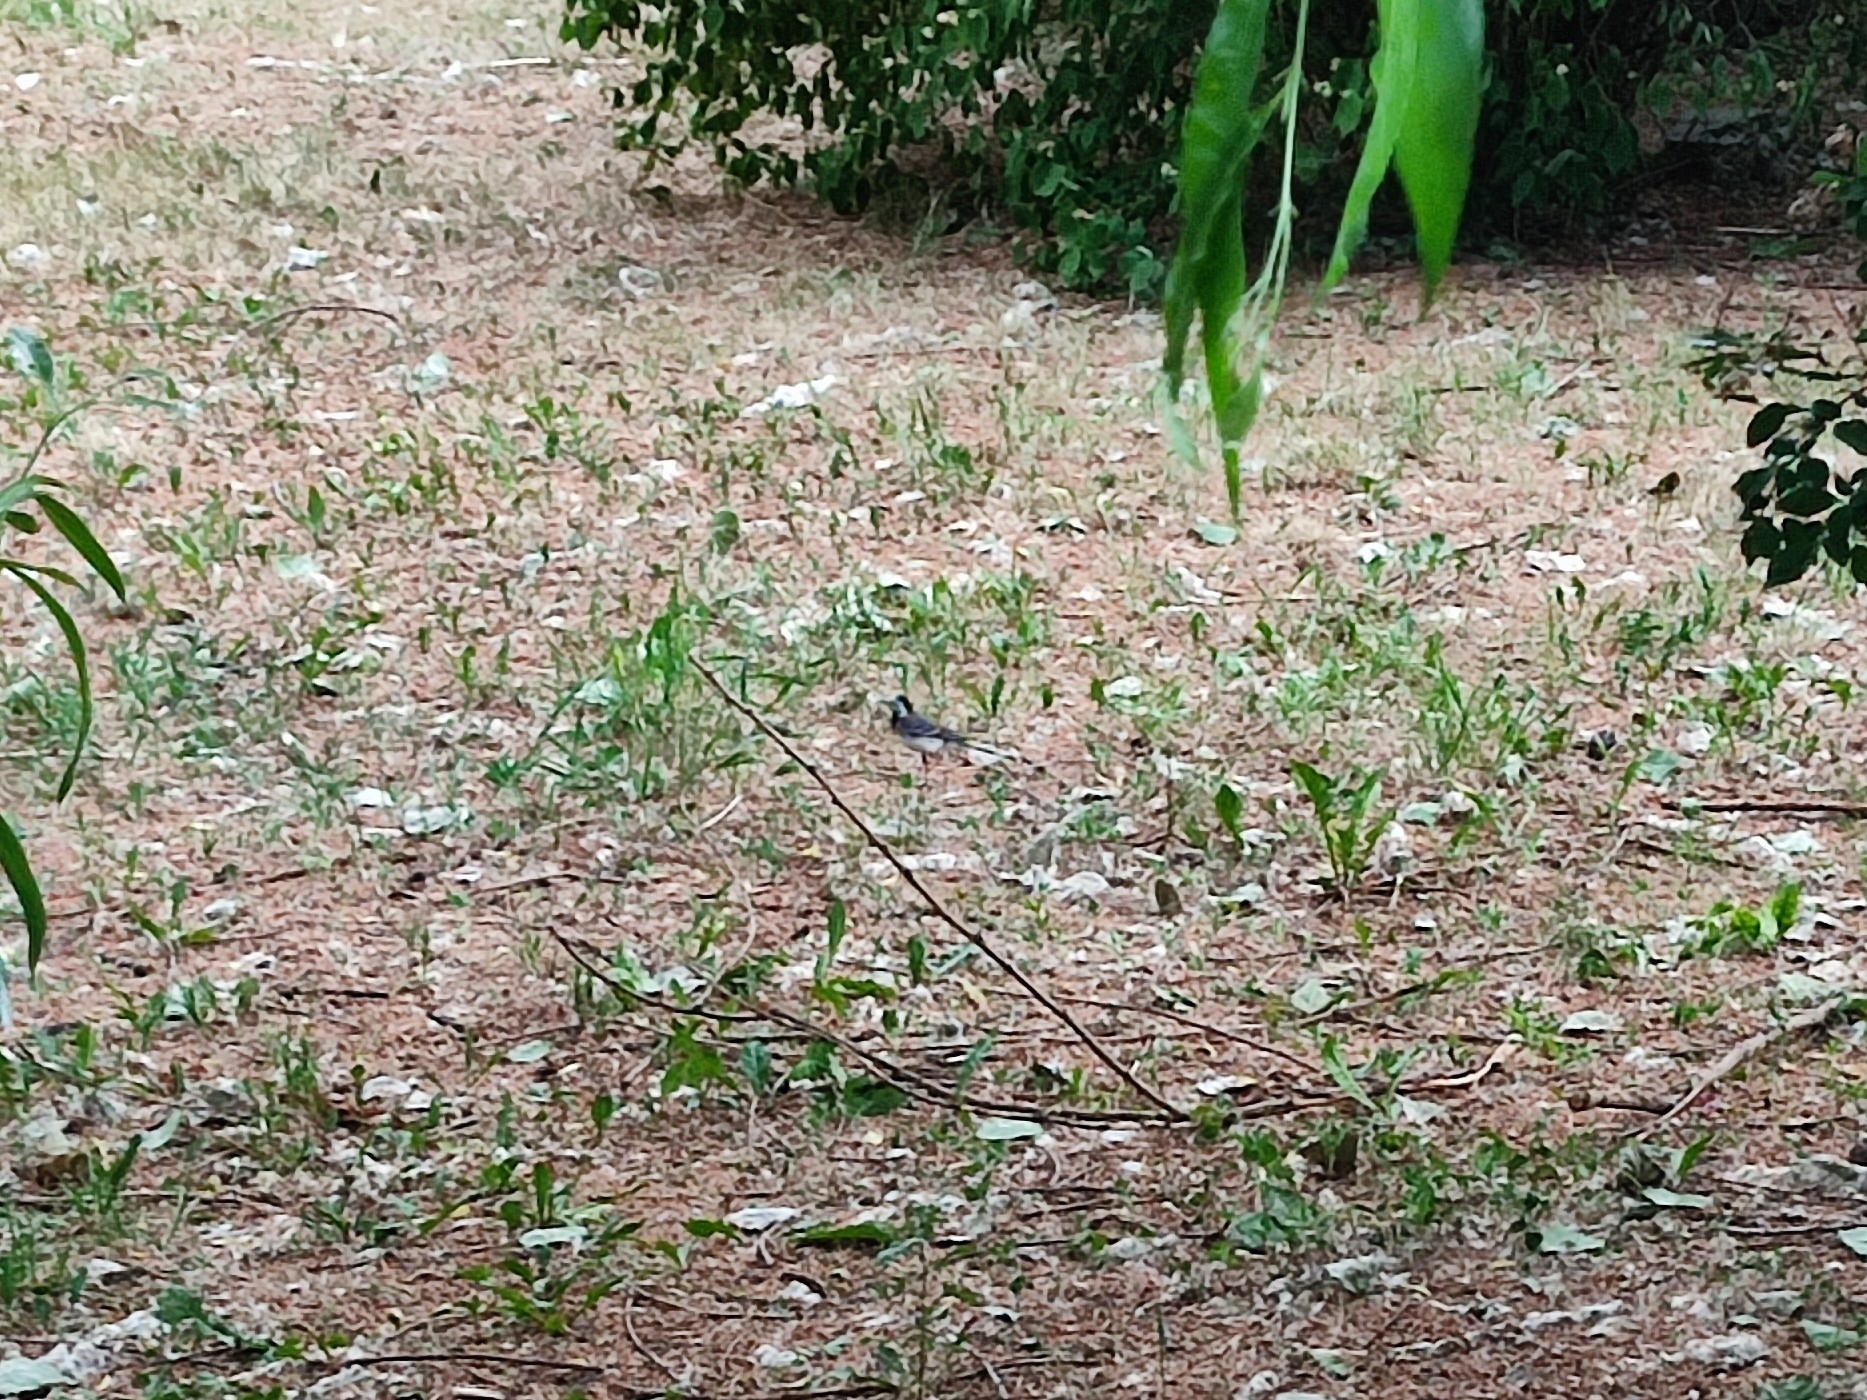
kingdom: Animalia
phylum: Chordata
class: Aves
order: Passeriformes
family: Motacillidae
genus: Motacilla
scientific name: Motacilla alba
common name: White wagtail
